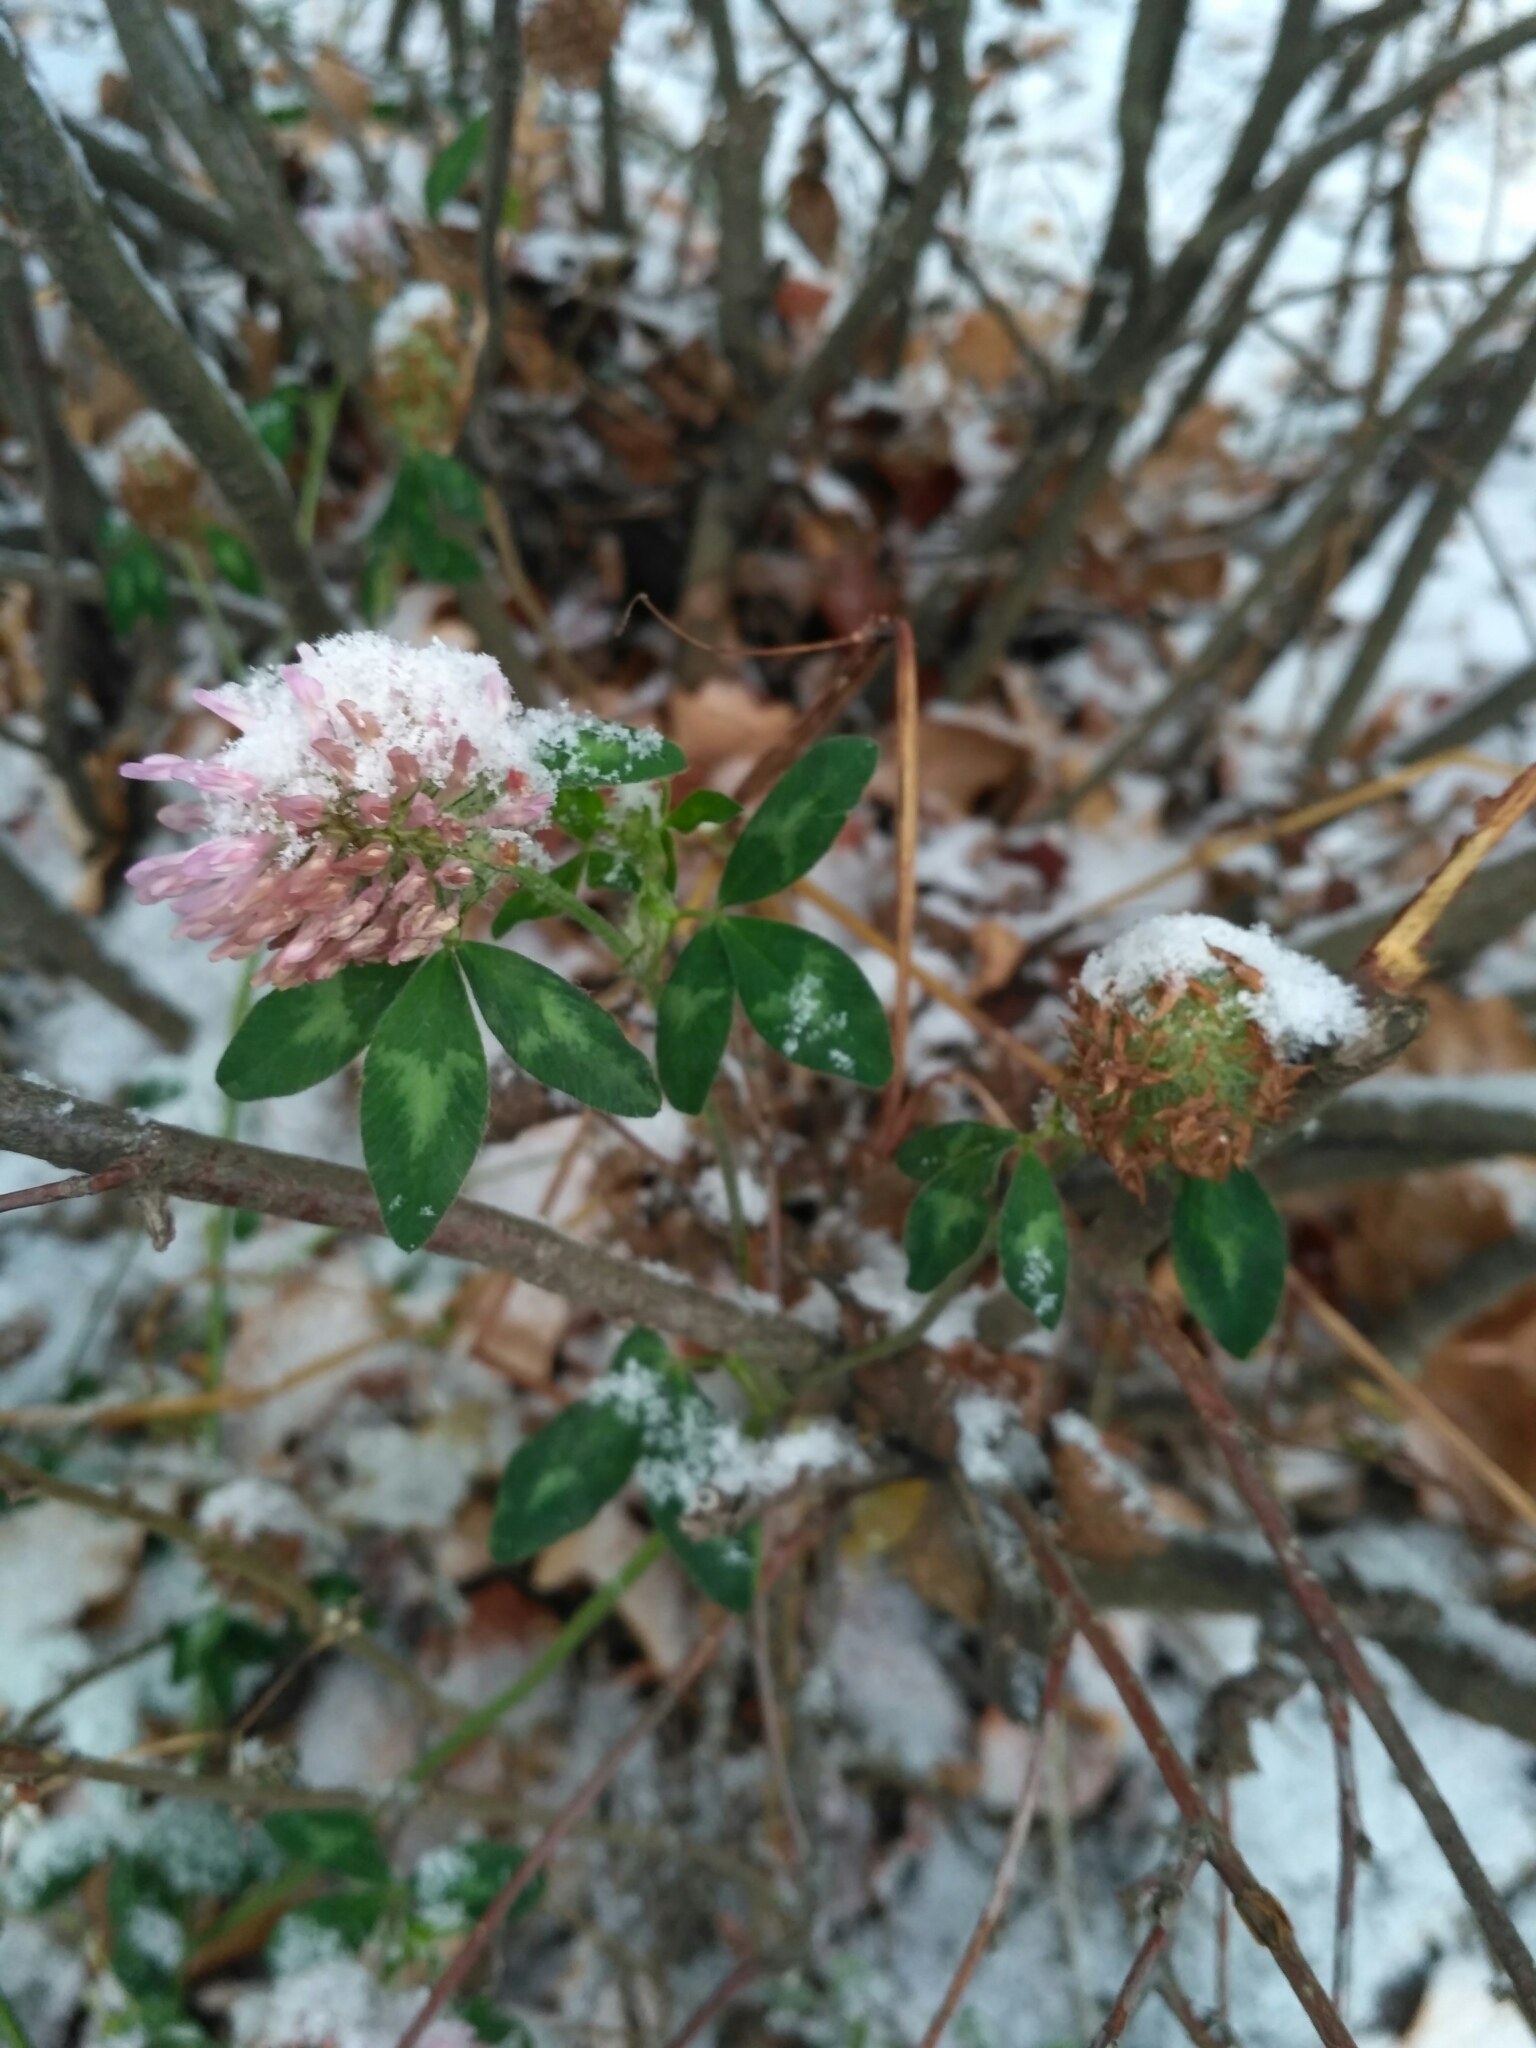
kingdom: Plantae
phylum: Tracheophyta
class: Magnoliopsida
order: Fabales
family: Fabaceae
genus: Trifolium
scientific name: Trifolium pratense
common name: Red clover
